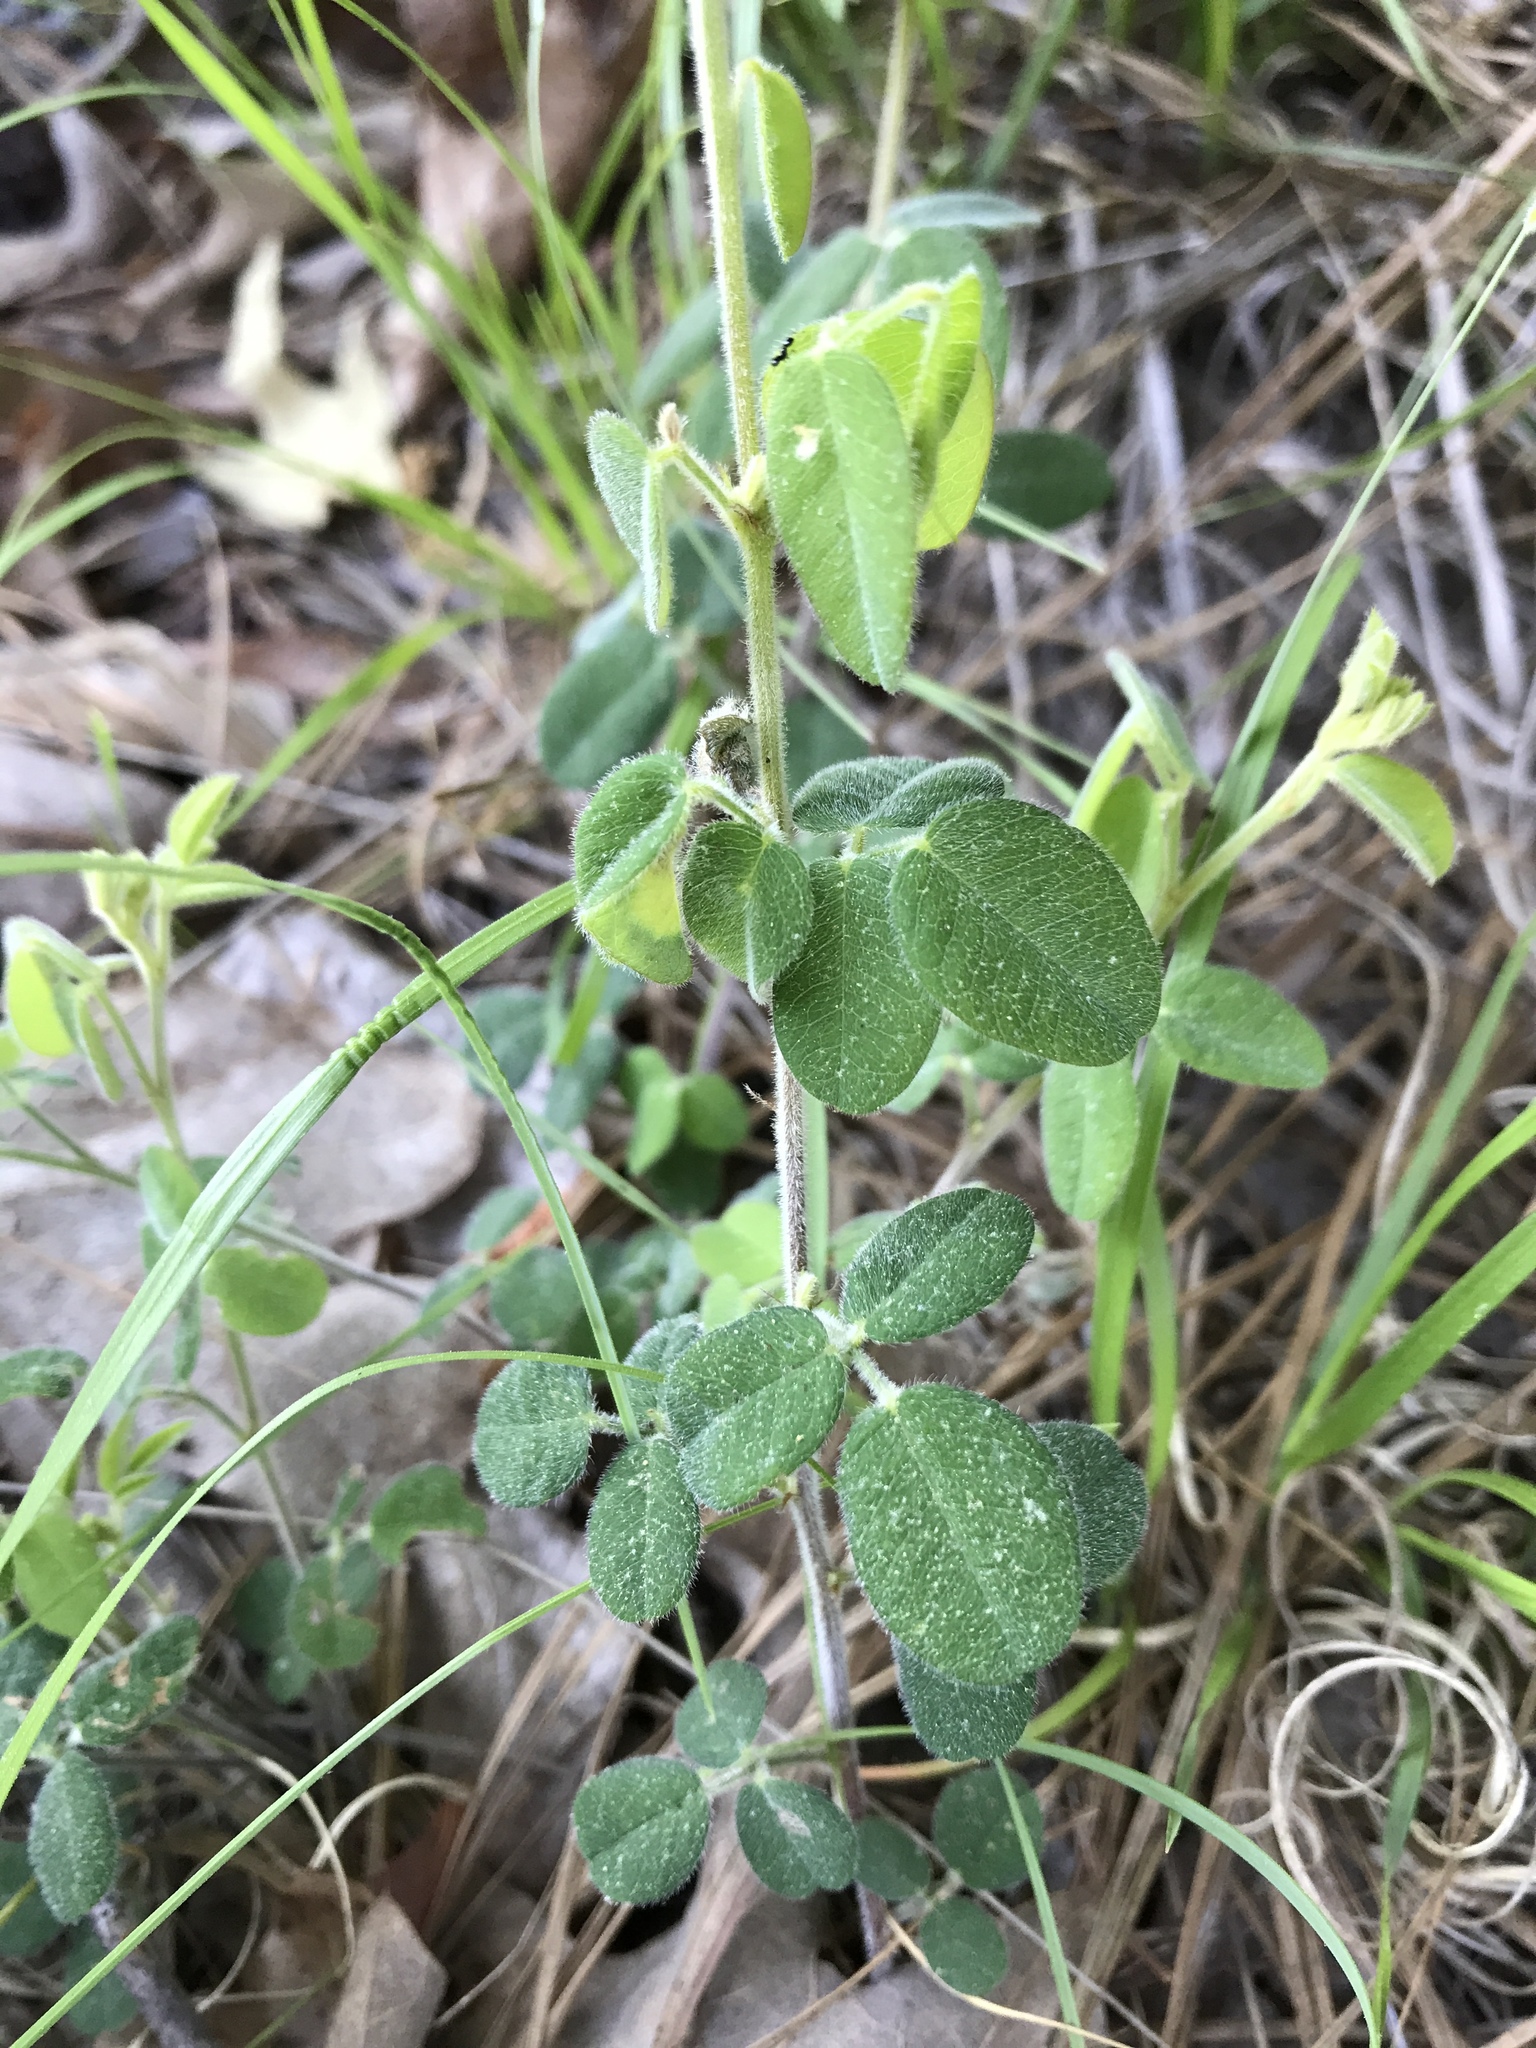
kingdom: Plantae
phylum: Tracheophyta
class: Magnoliopsida
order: Fabales
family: Fabaceae
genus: Lespedeza
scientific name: Lespedeza hirta
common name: Hairy lespedeza
